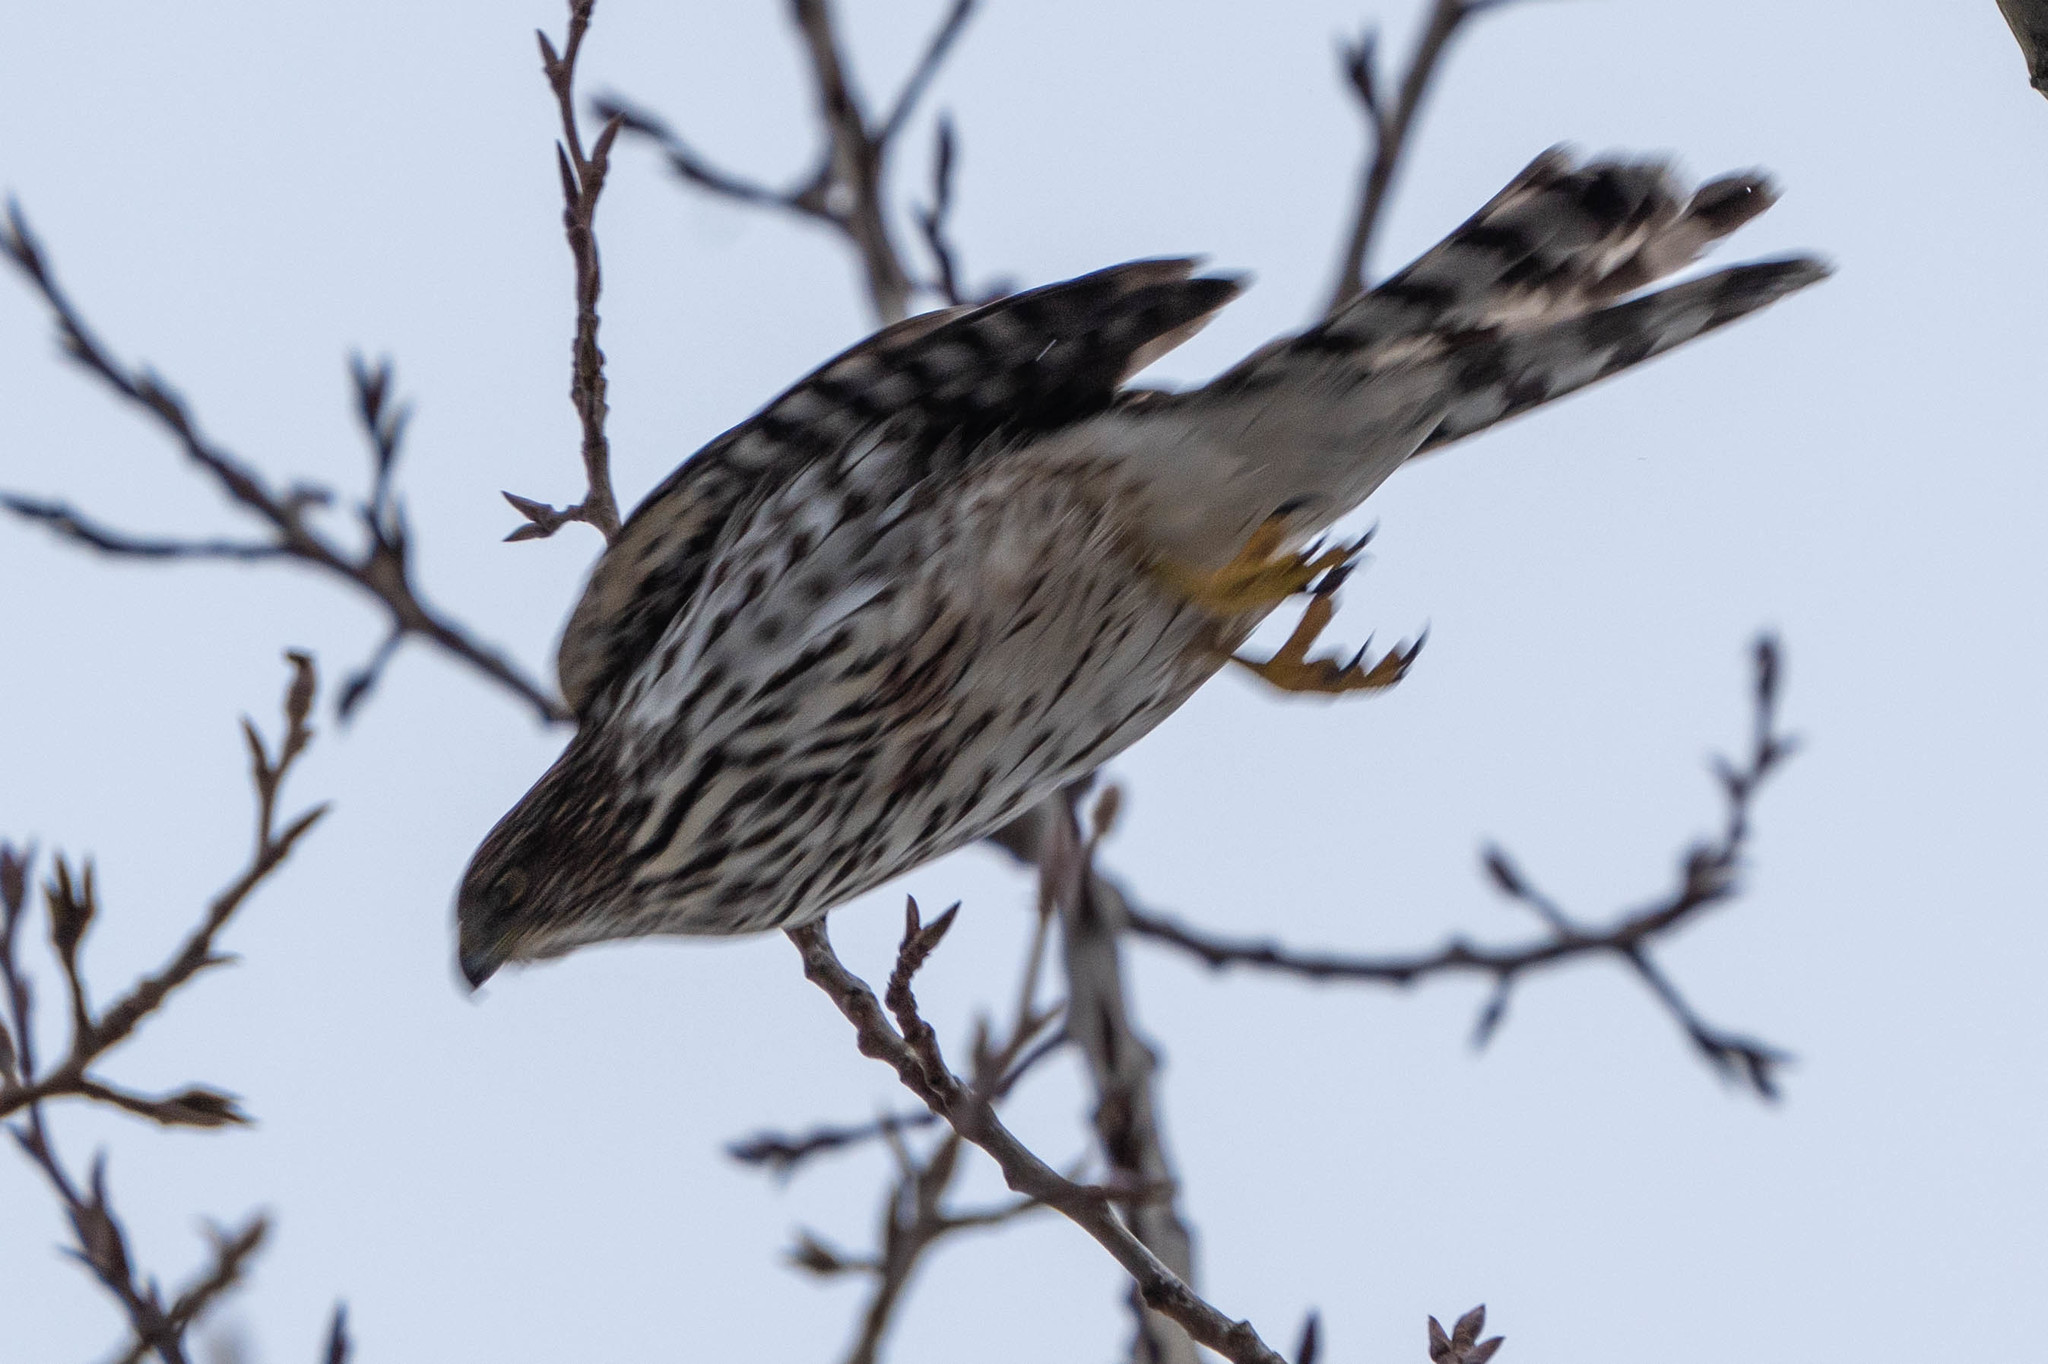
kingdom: Animalia
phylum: Chordata
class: Aves
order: Accipitriformes
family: Accipitridae
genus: Accipiter
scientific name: Accipiter cooperii
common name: Cooper's hawk
